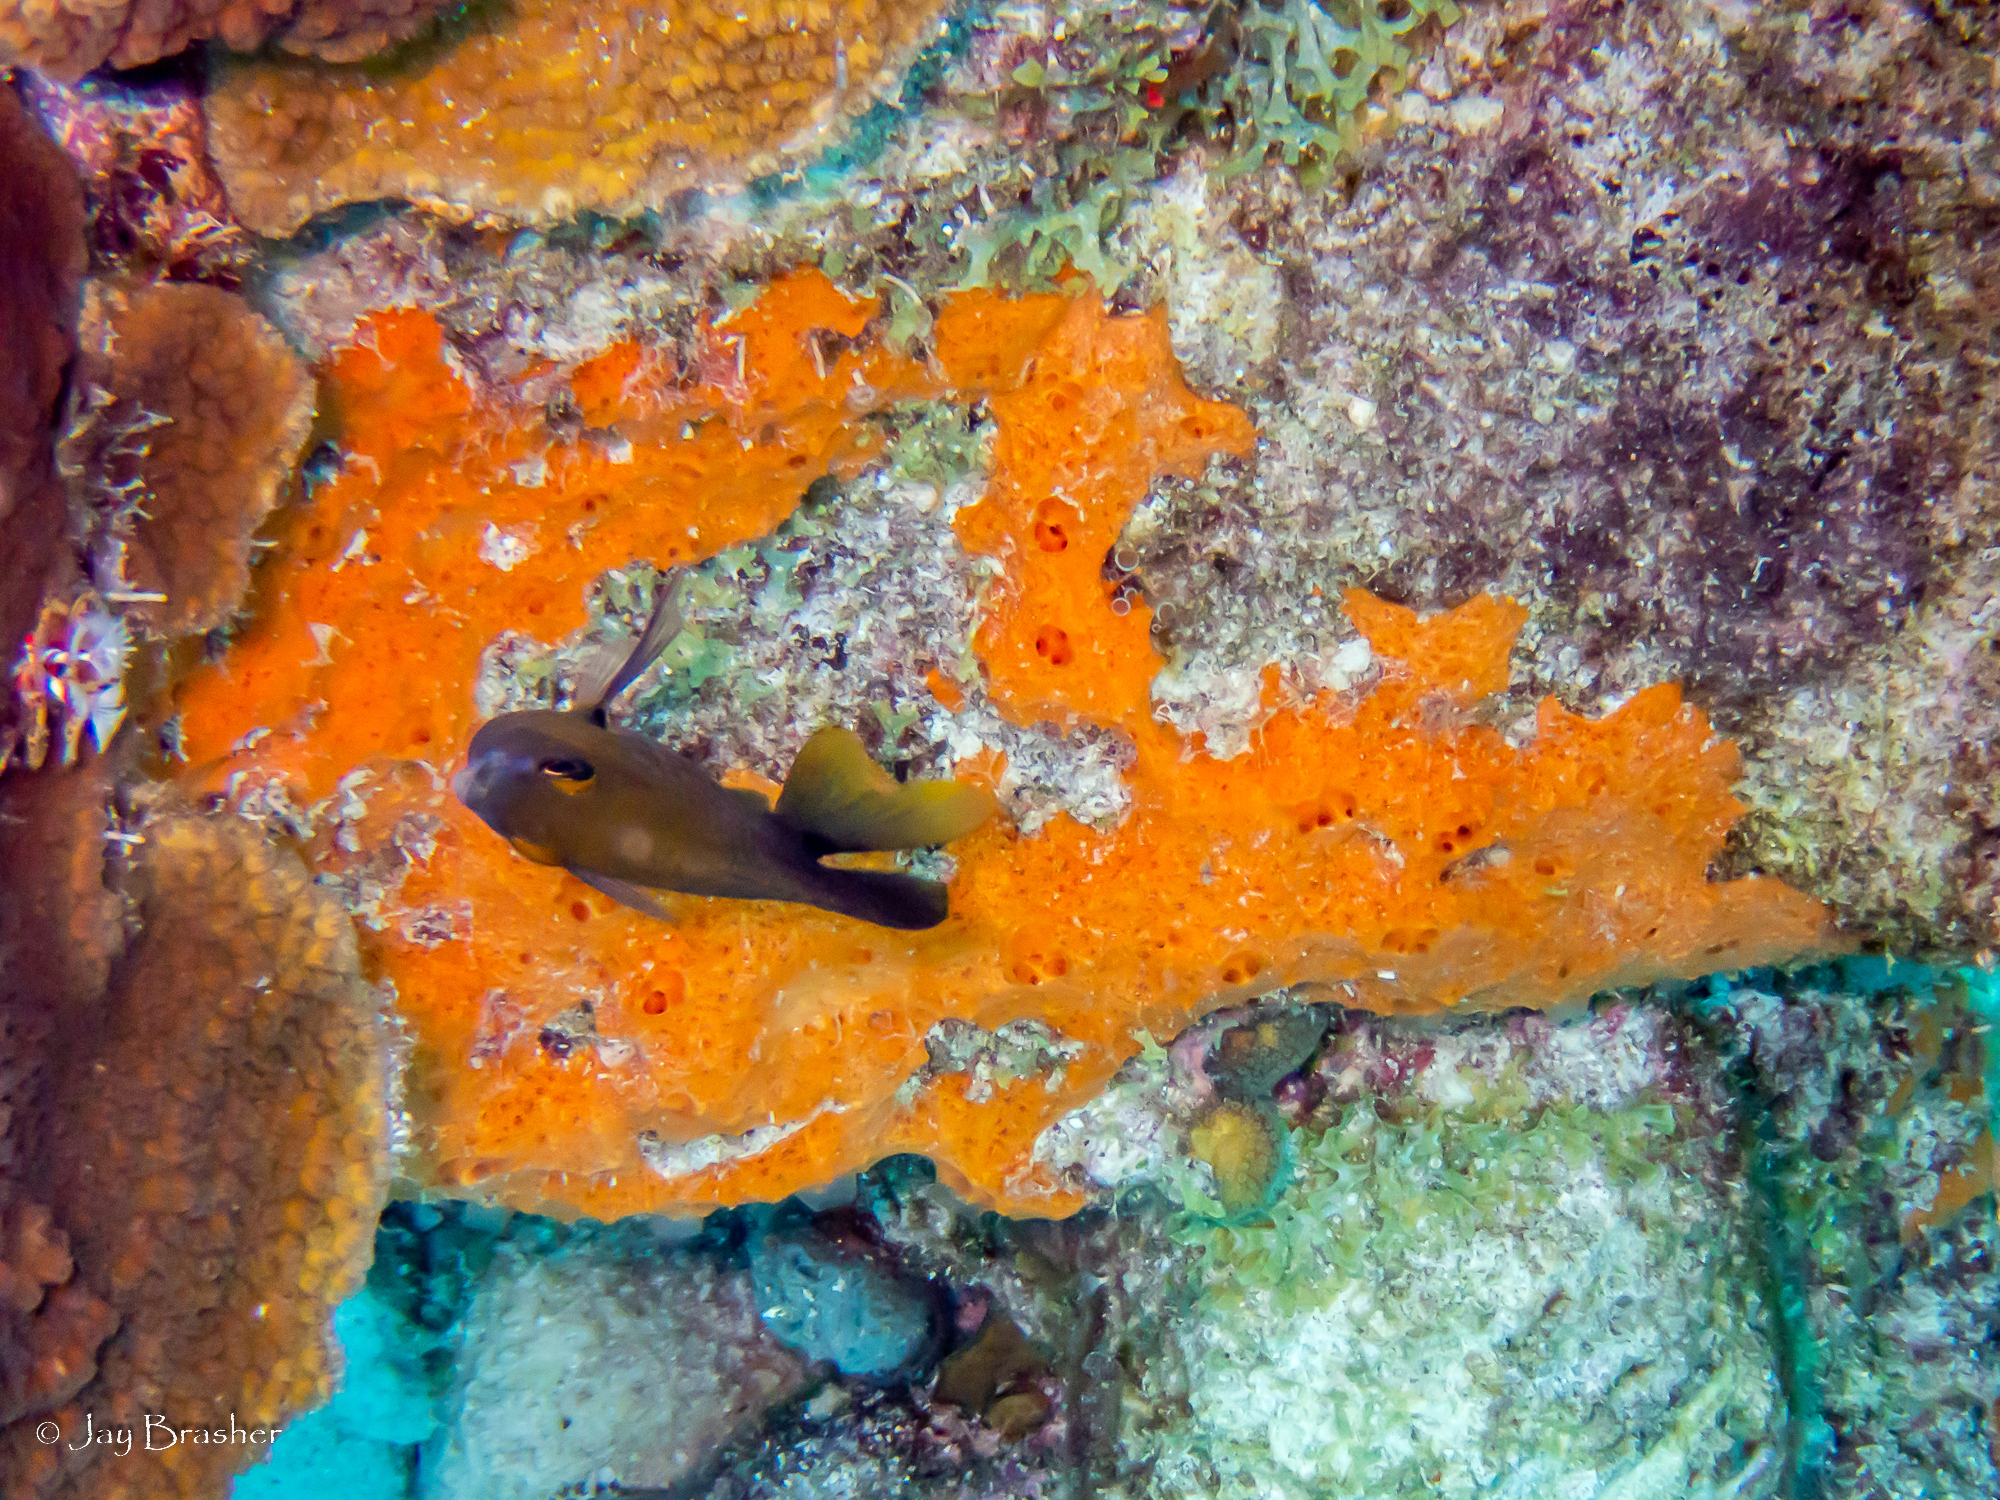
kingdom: Animalia
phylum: Chordata
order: Perciformes
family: Pomacentridae
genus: Stegastes
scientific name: Stegastes planifrons
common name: Threespot damselfish
